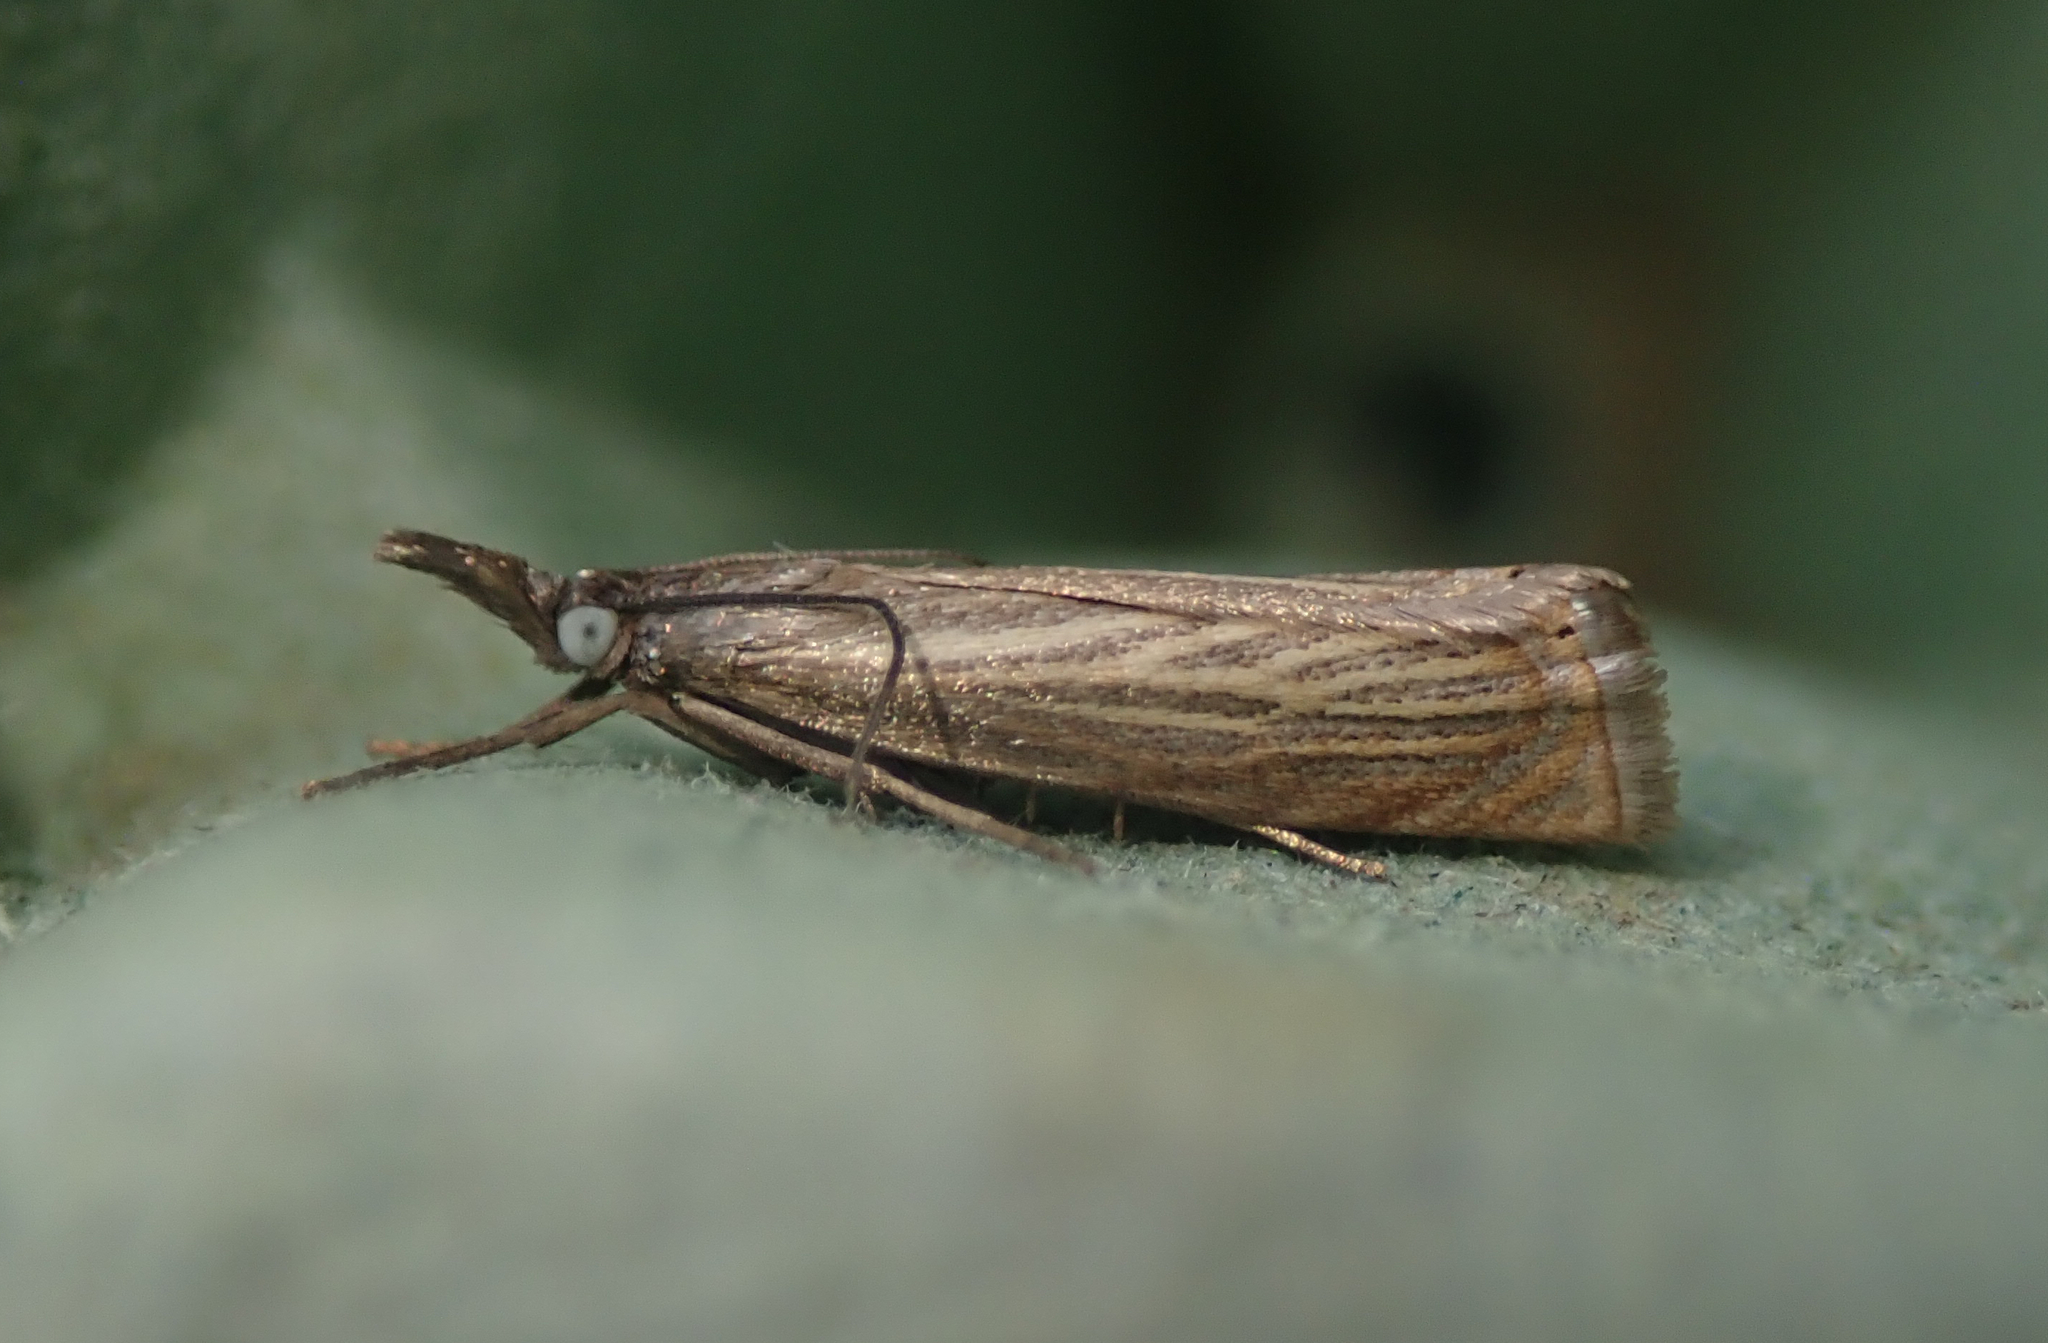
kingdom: Animalia
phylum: Arthropoda
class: Insecta
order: Lepidoptera
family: Crambidae
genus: Chrysoteuchia
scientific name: Chrysoteuchia culmella
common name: Garden grass-veneer
